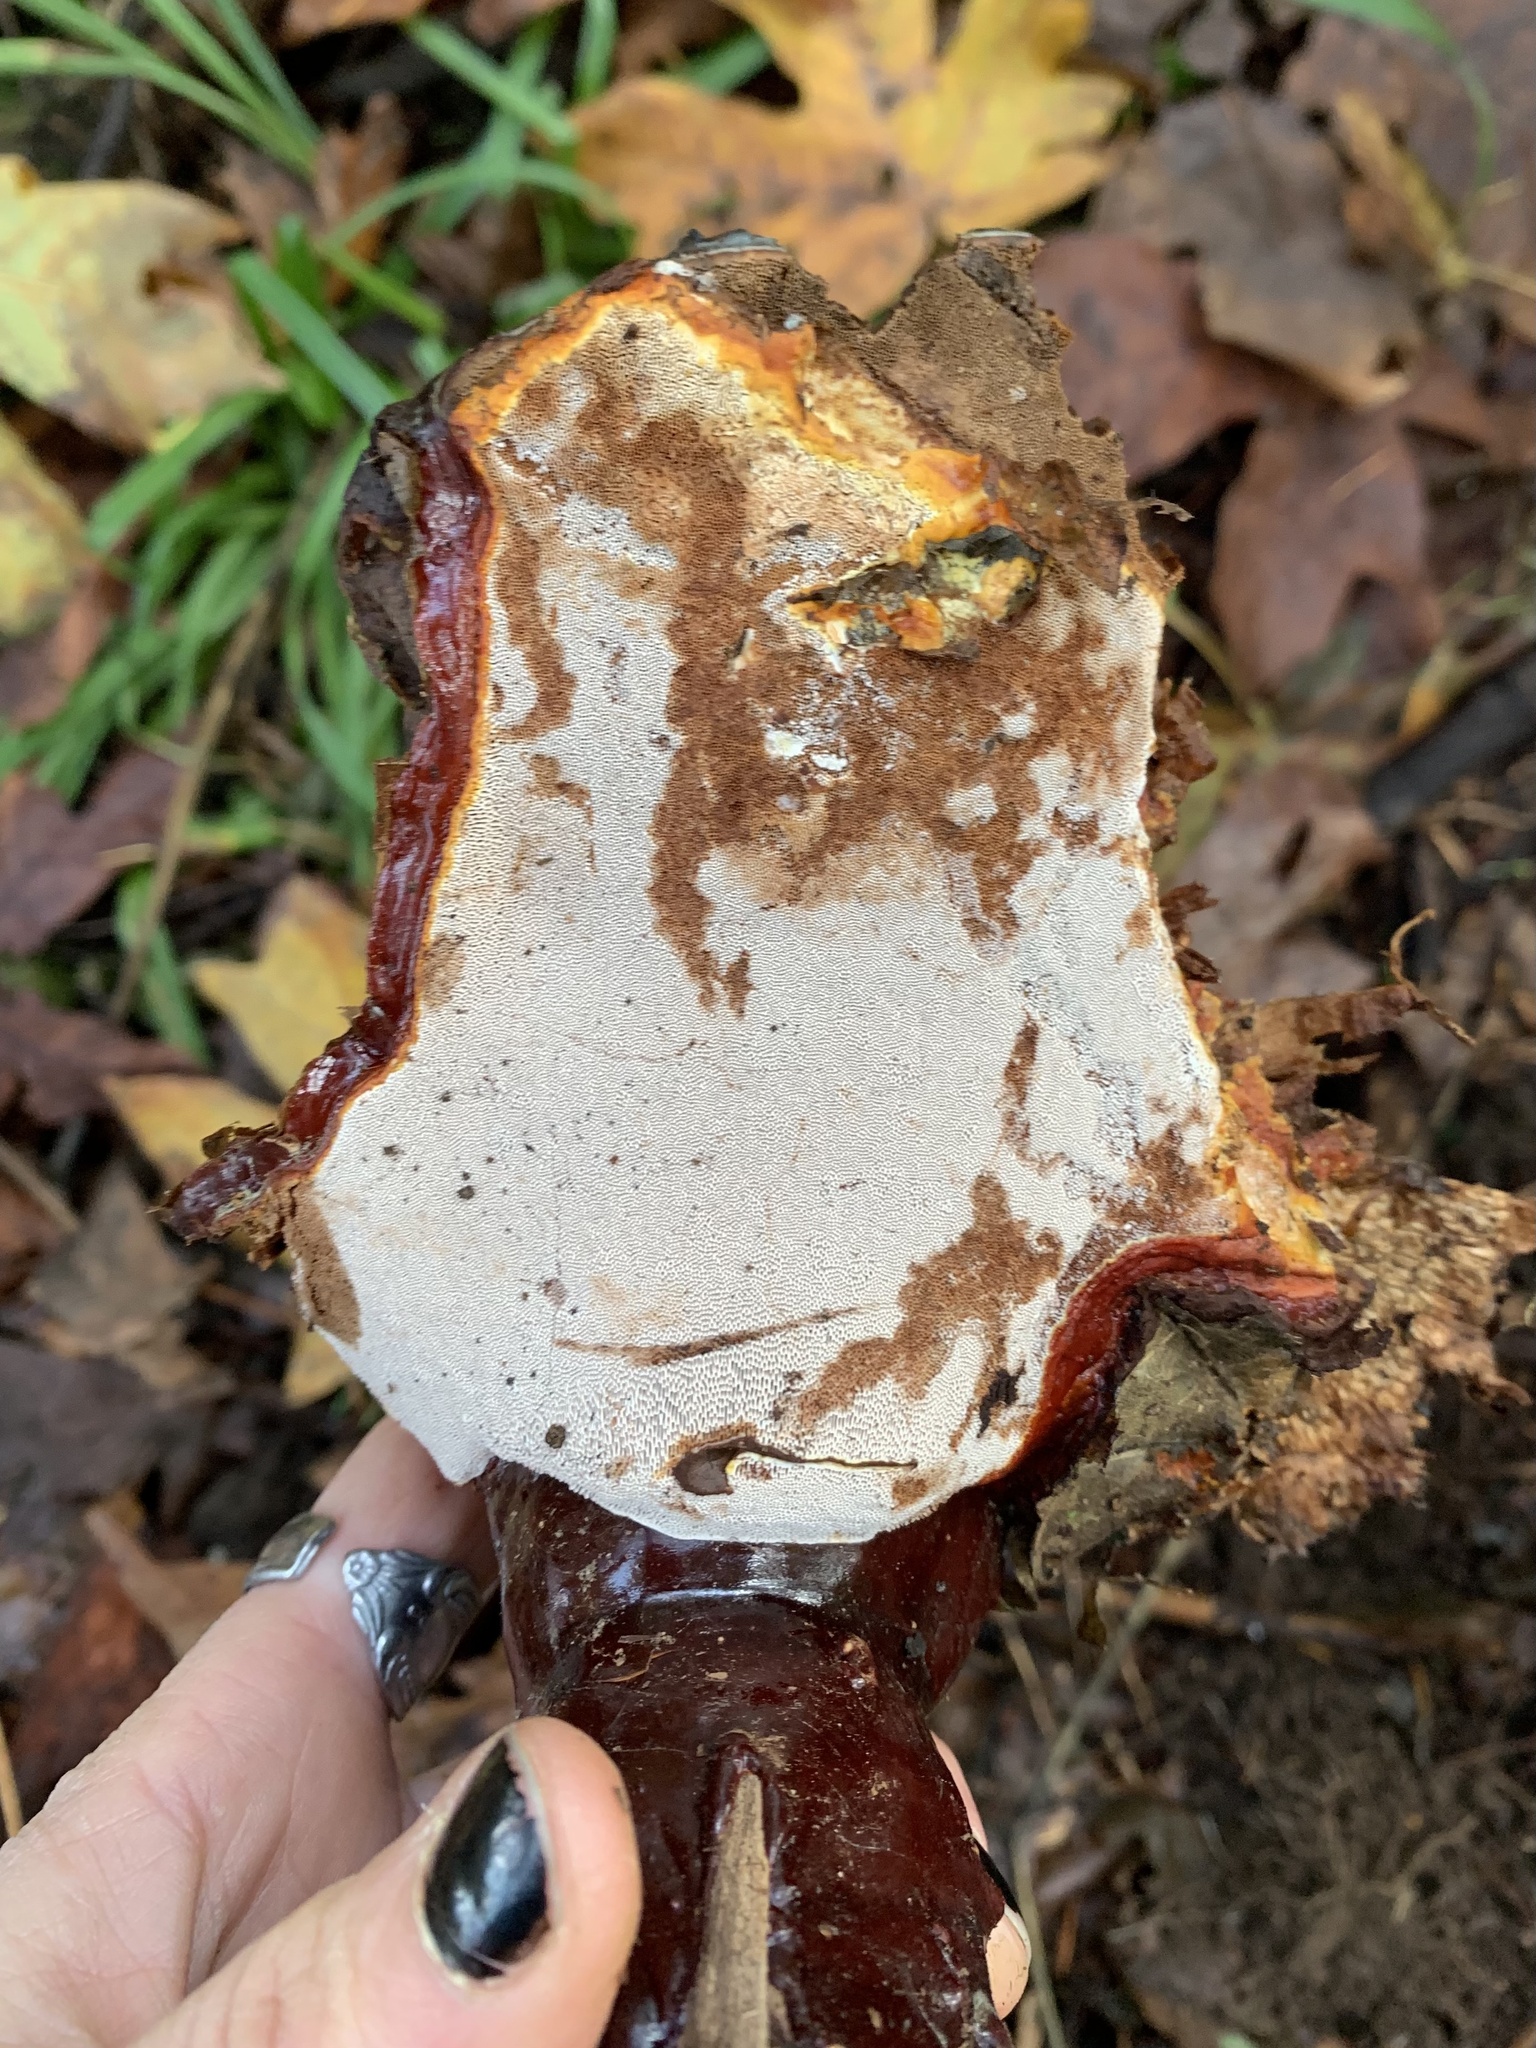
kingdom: Fungi
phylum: Basidiomycota
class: Agaricomycetes
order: Polyporales
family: Polyporaceae
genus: Ganoderma
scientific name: Ganoderma oregonense
